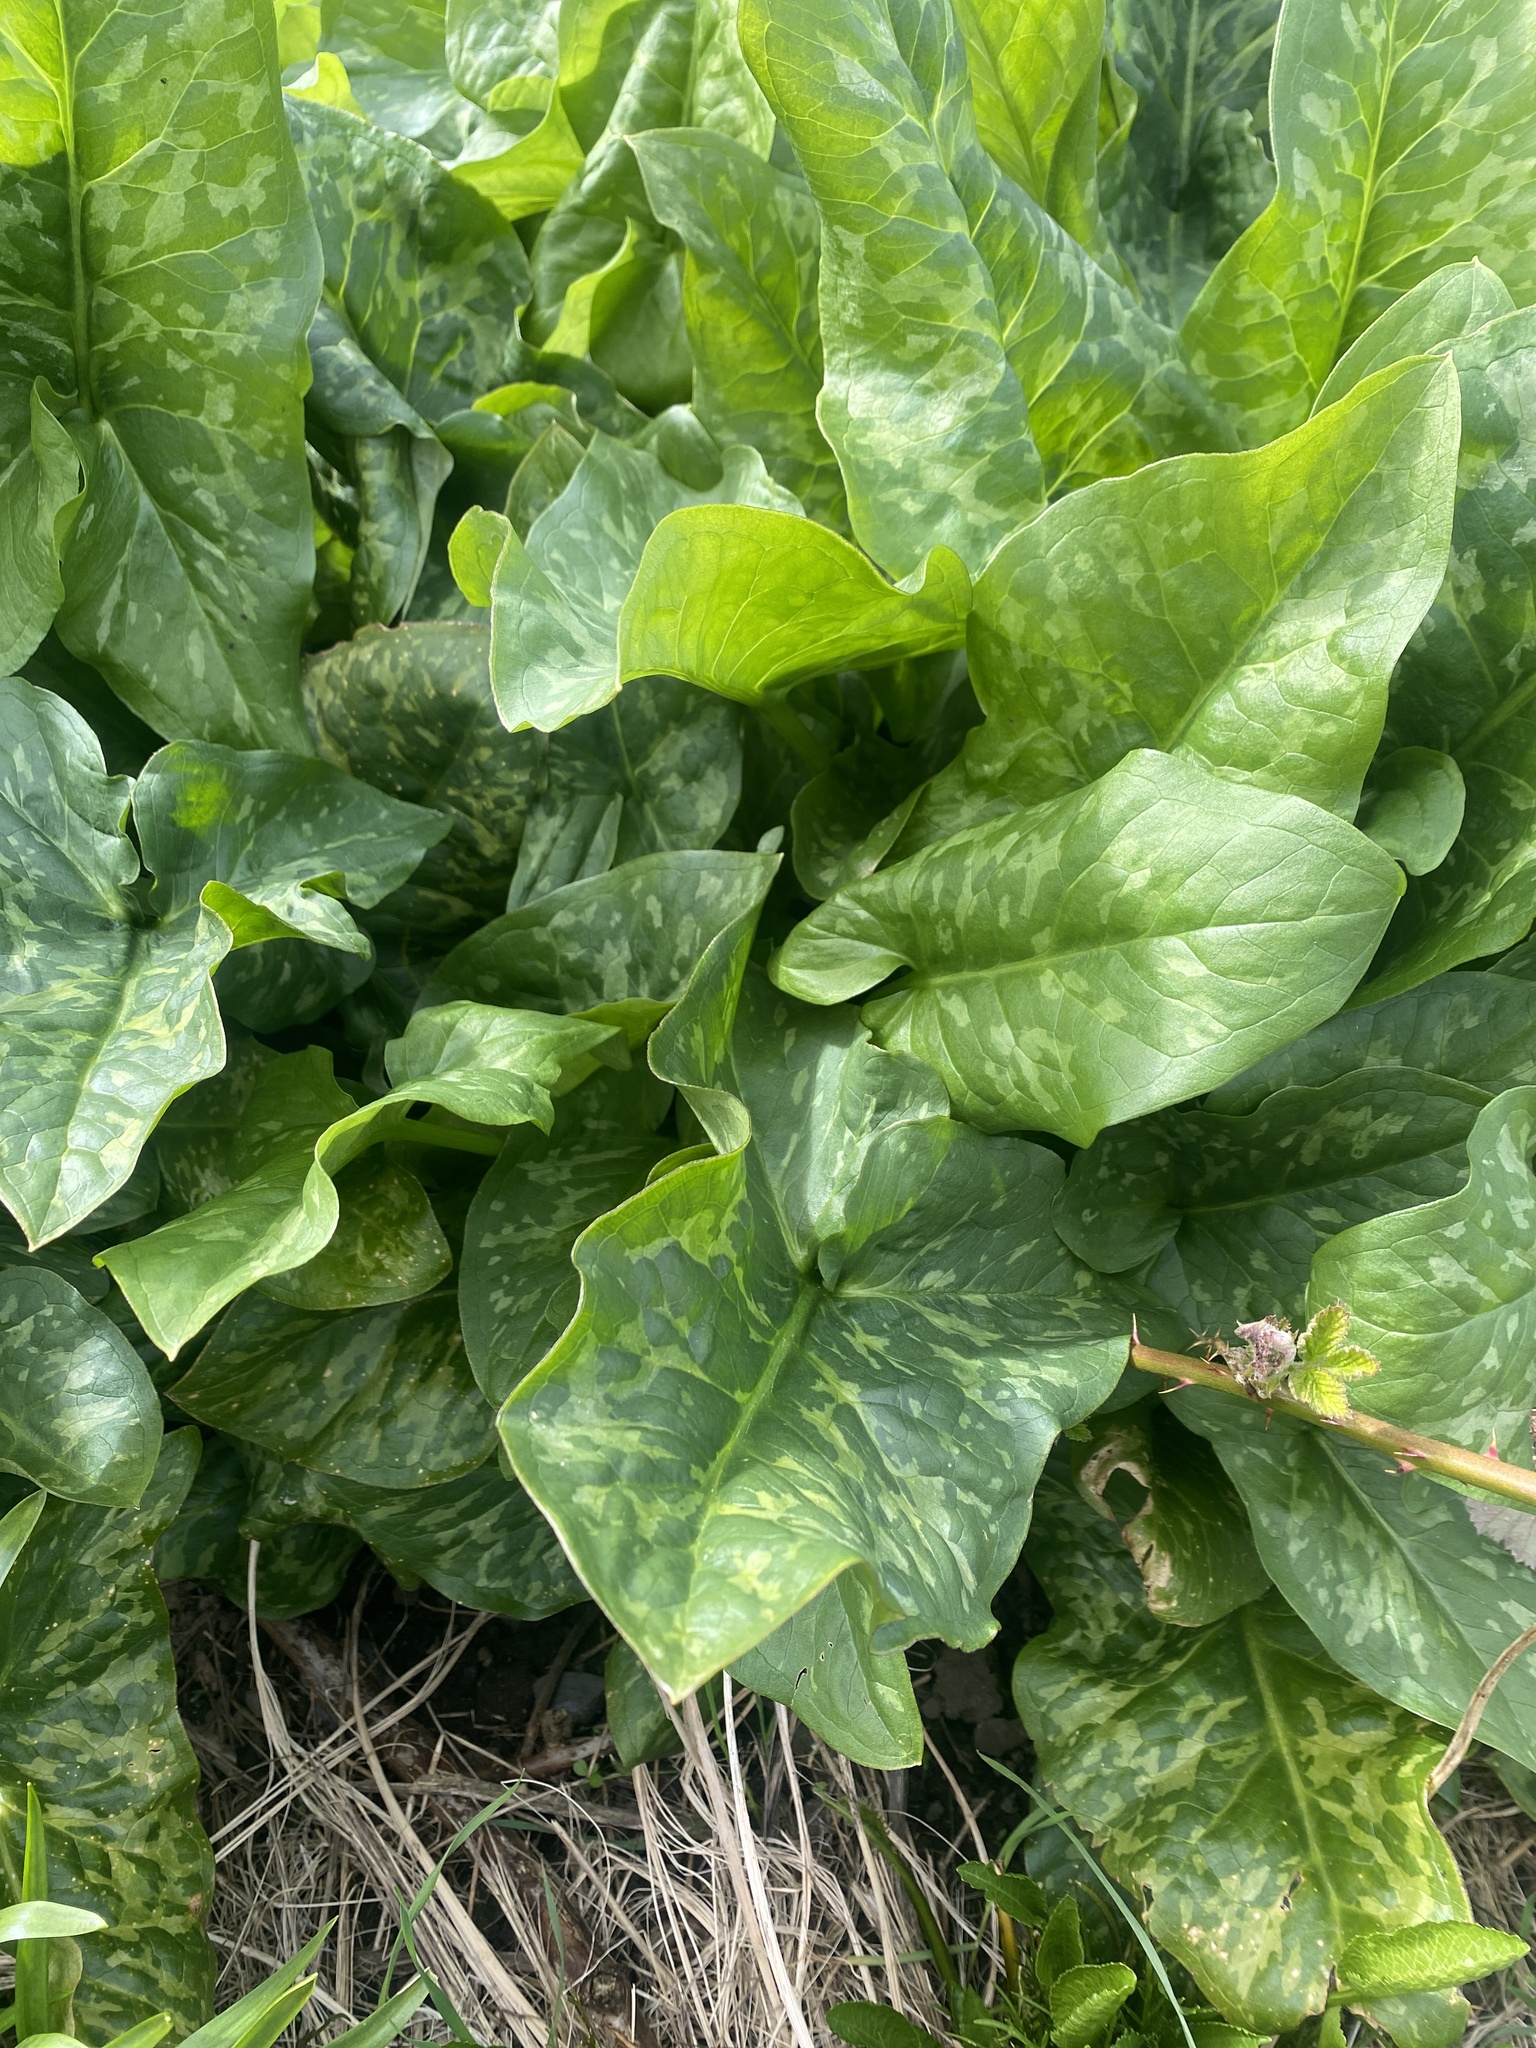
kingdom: Plantae
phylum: Tracheophyta
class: Liliopsida
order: Alismatales
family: Araceae
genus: Arum
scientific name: Arum italicum
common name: Italian lords-and-ladies
